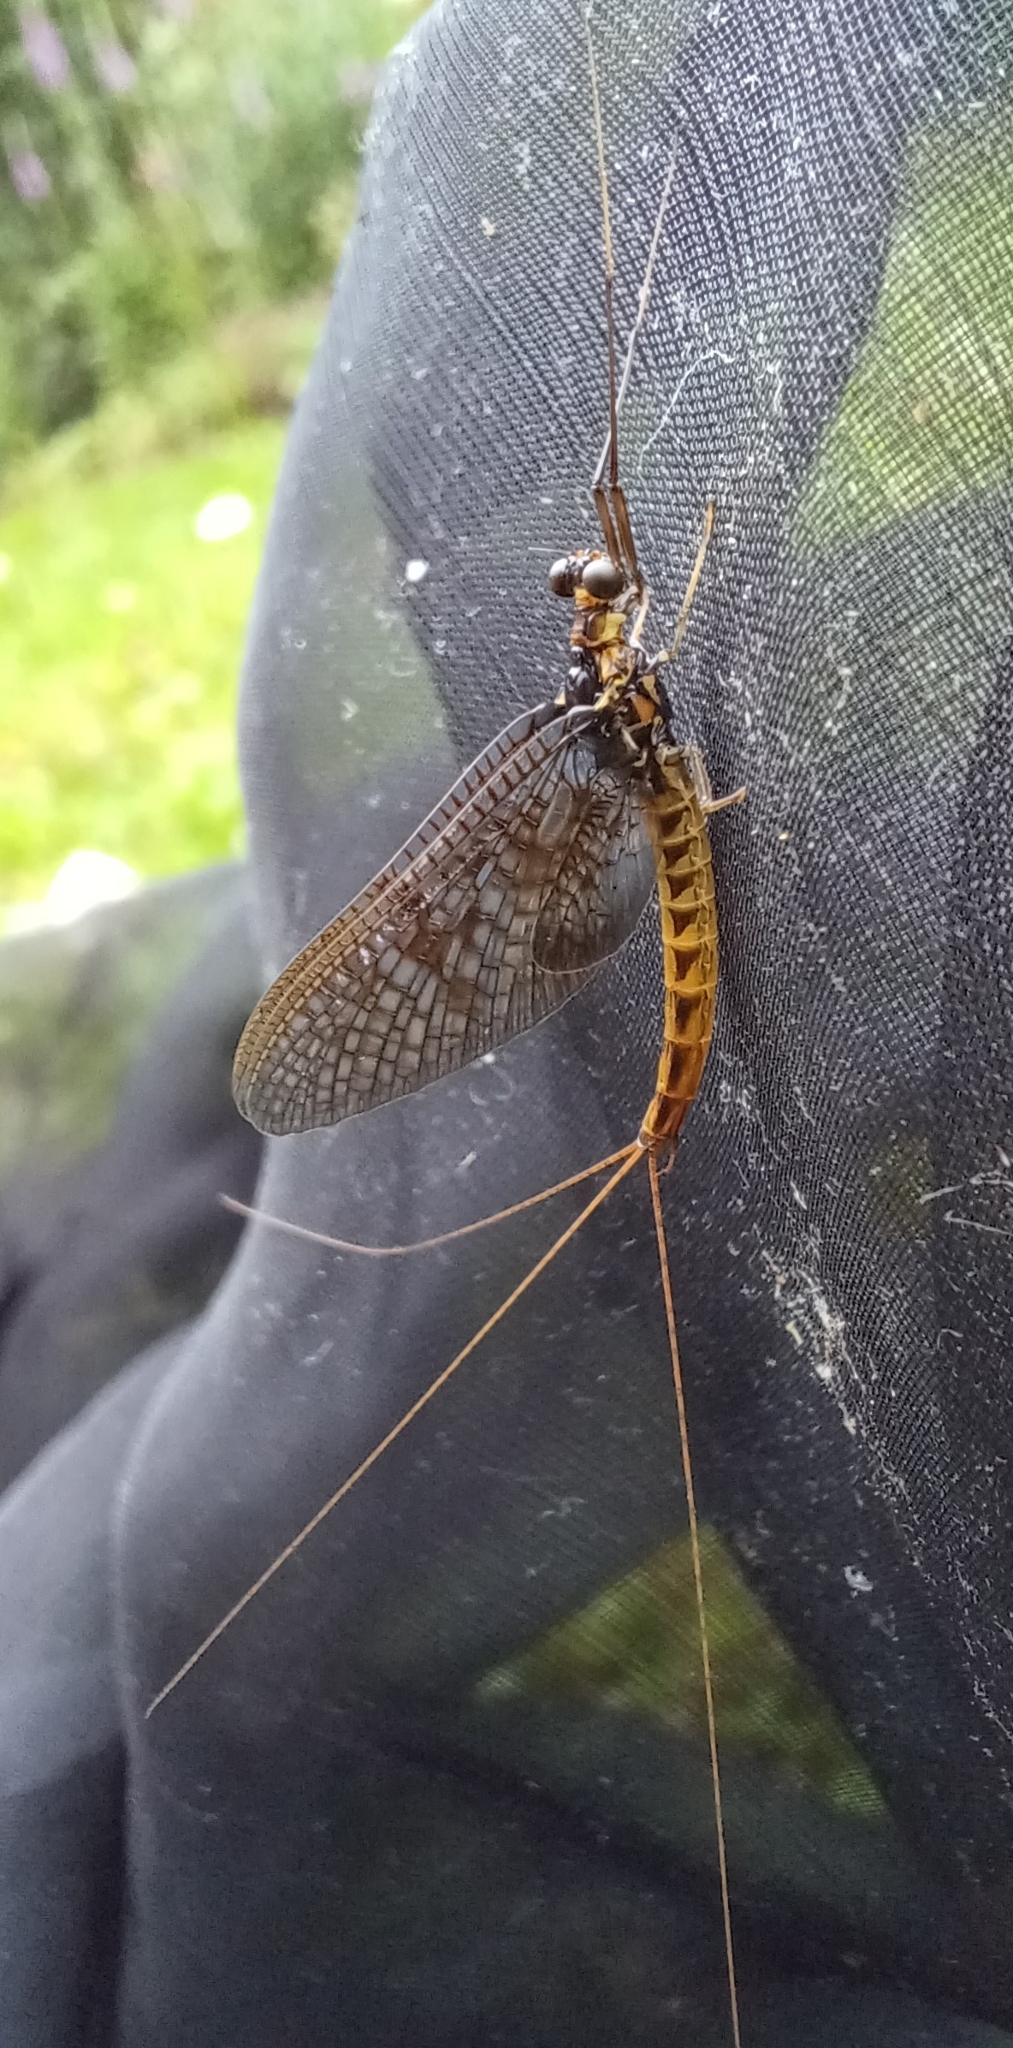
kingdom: Animalia
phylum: Arthropoda
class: Insecta
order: Ephemeroptera
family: Ephemeridae
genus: Ephemera
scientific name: Ephemera vulgata
